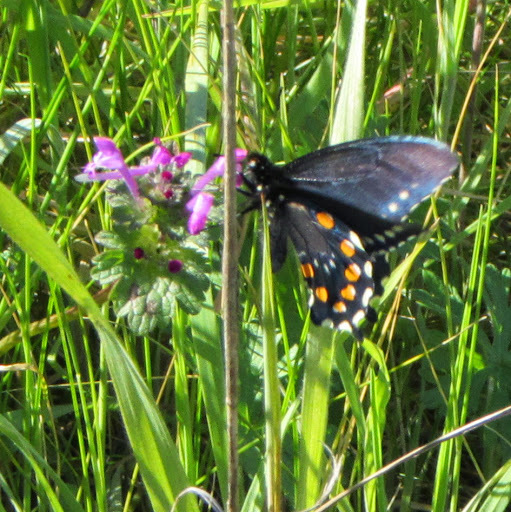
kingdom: Animalia
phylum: Arthropoda
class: Insecta
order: Lepidoptera
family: Papilionidae
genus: Battus
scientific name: Battus philenor
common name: Pipevine swallowtail
